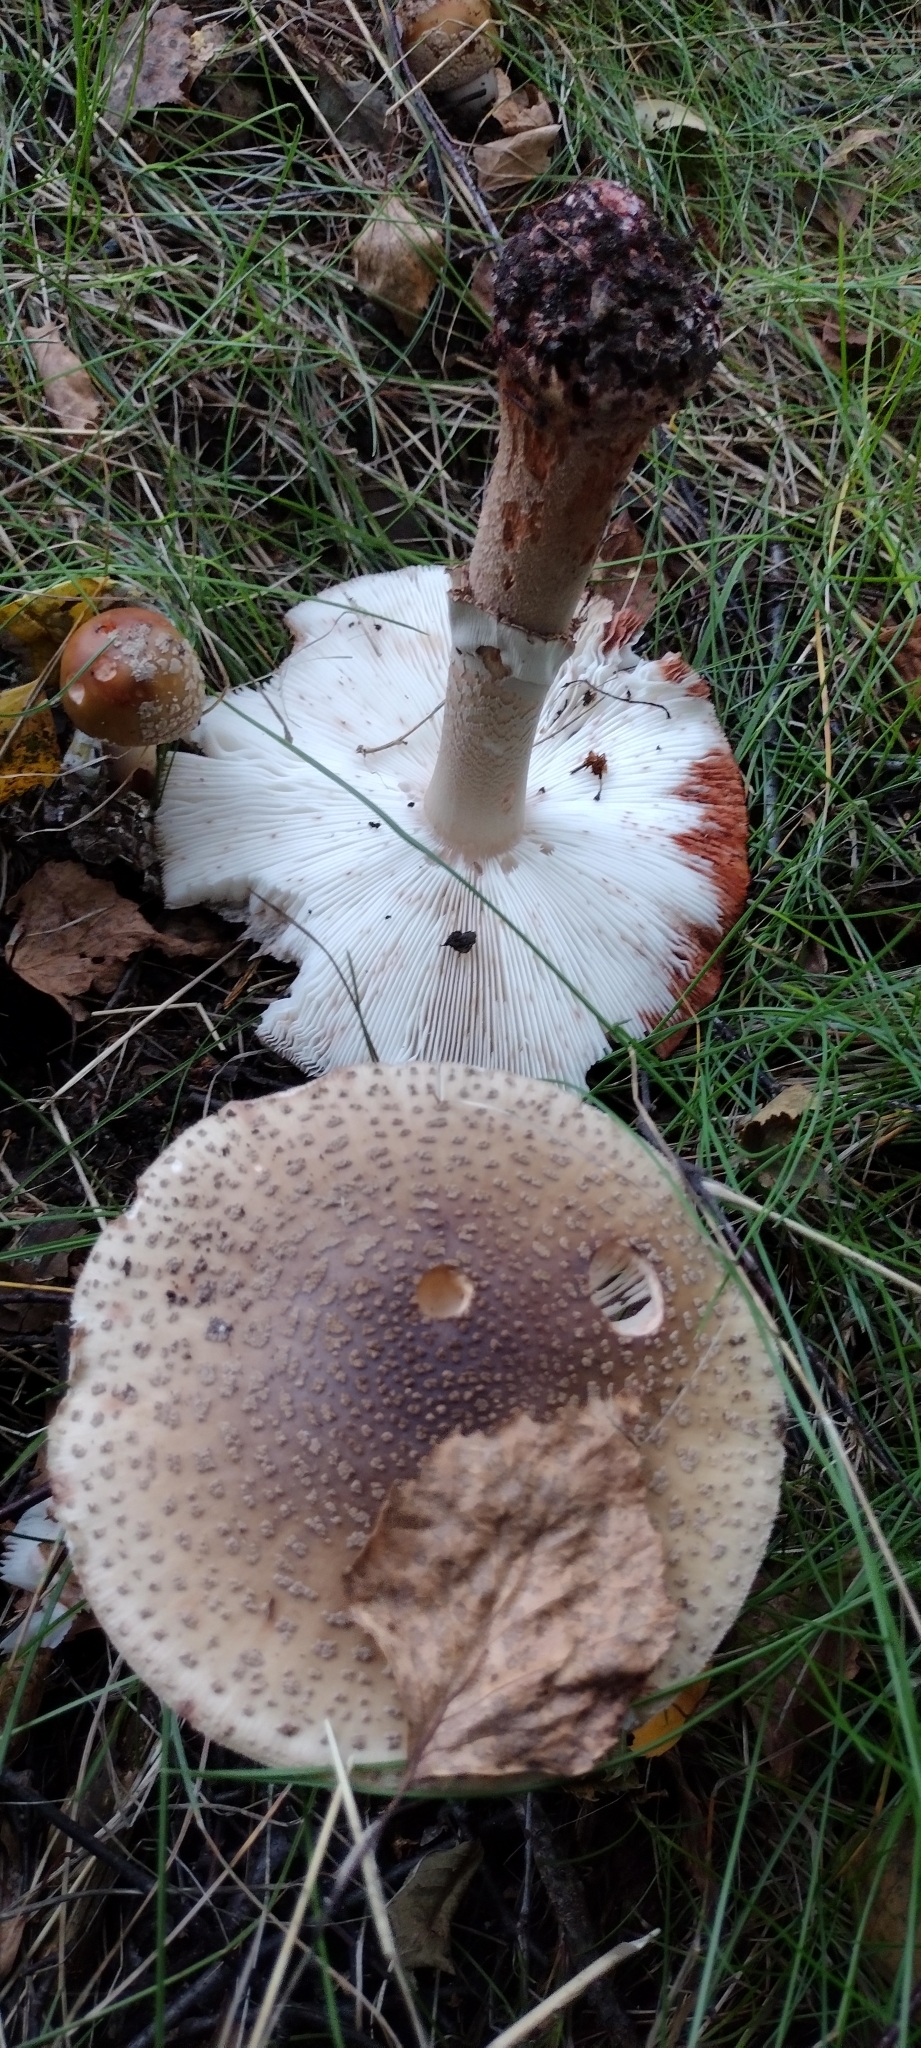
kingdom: Fungi
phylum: Basidiomycota
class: Agaricomycetes
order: Agaricales
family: Amanitaceae
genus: Amanita
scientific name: Amanita rubescens
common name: Blusher
